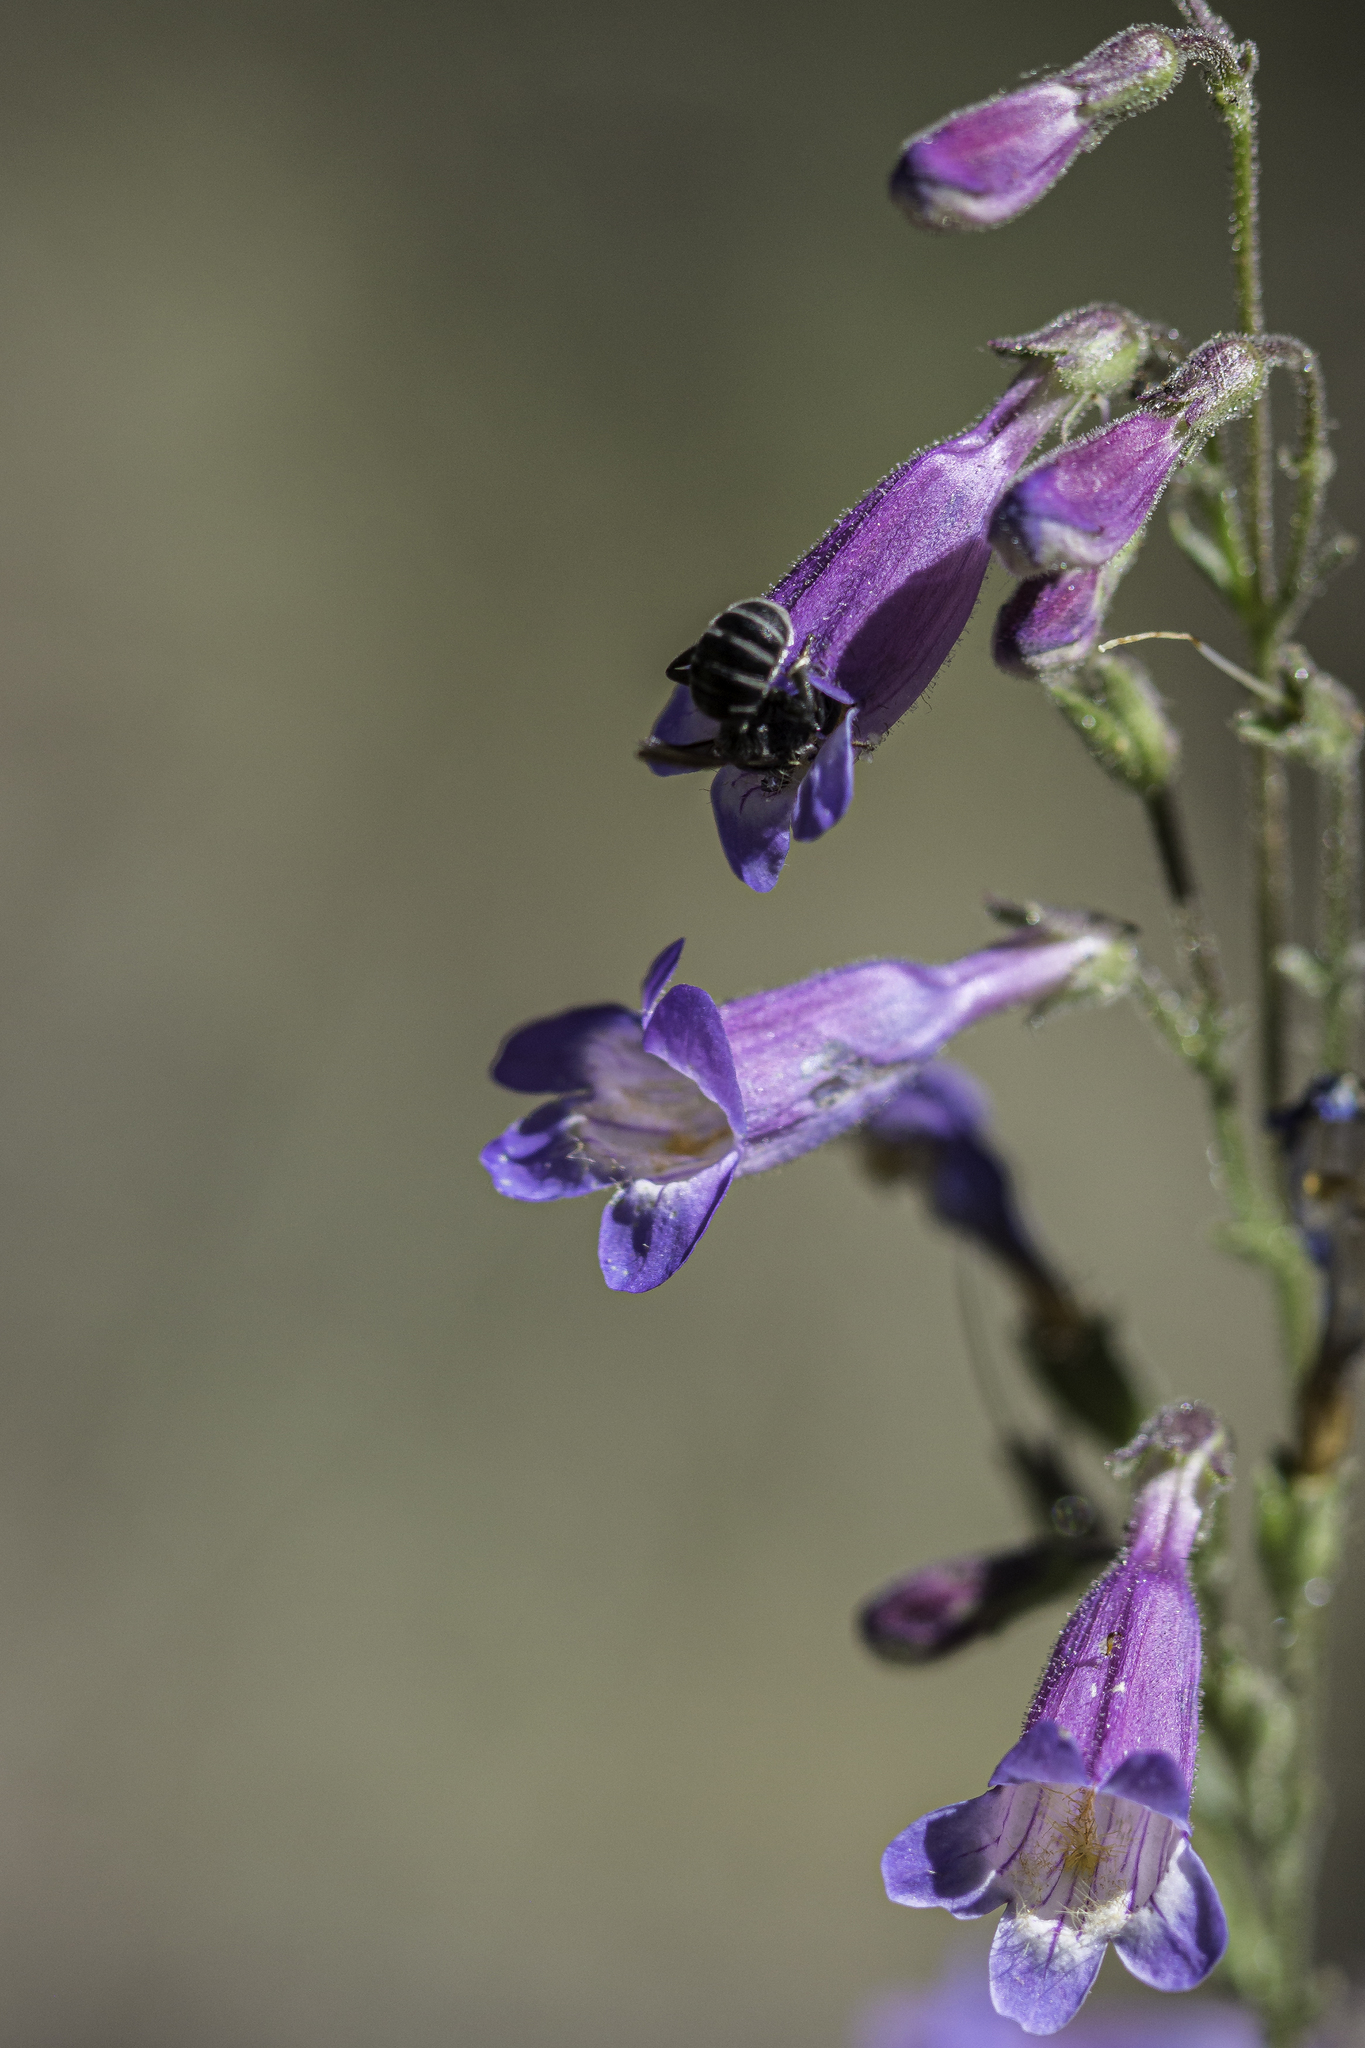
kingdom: Plantae
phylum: Tracheophyta
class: Magnoliopsida
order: Lamiales
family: Plantaginaceae
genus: Penstemon
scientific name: Penstemon inflatus
